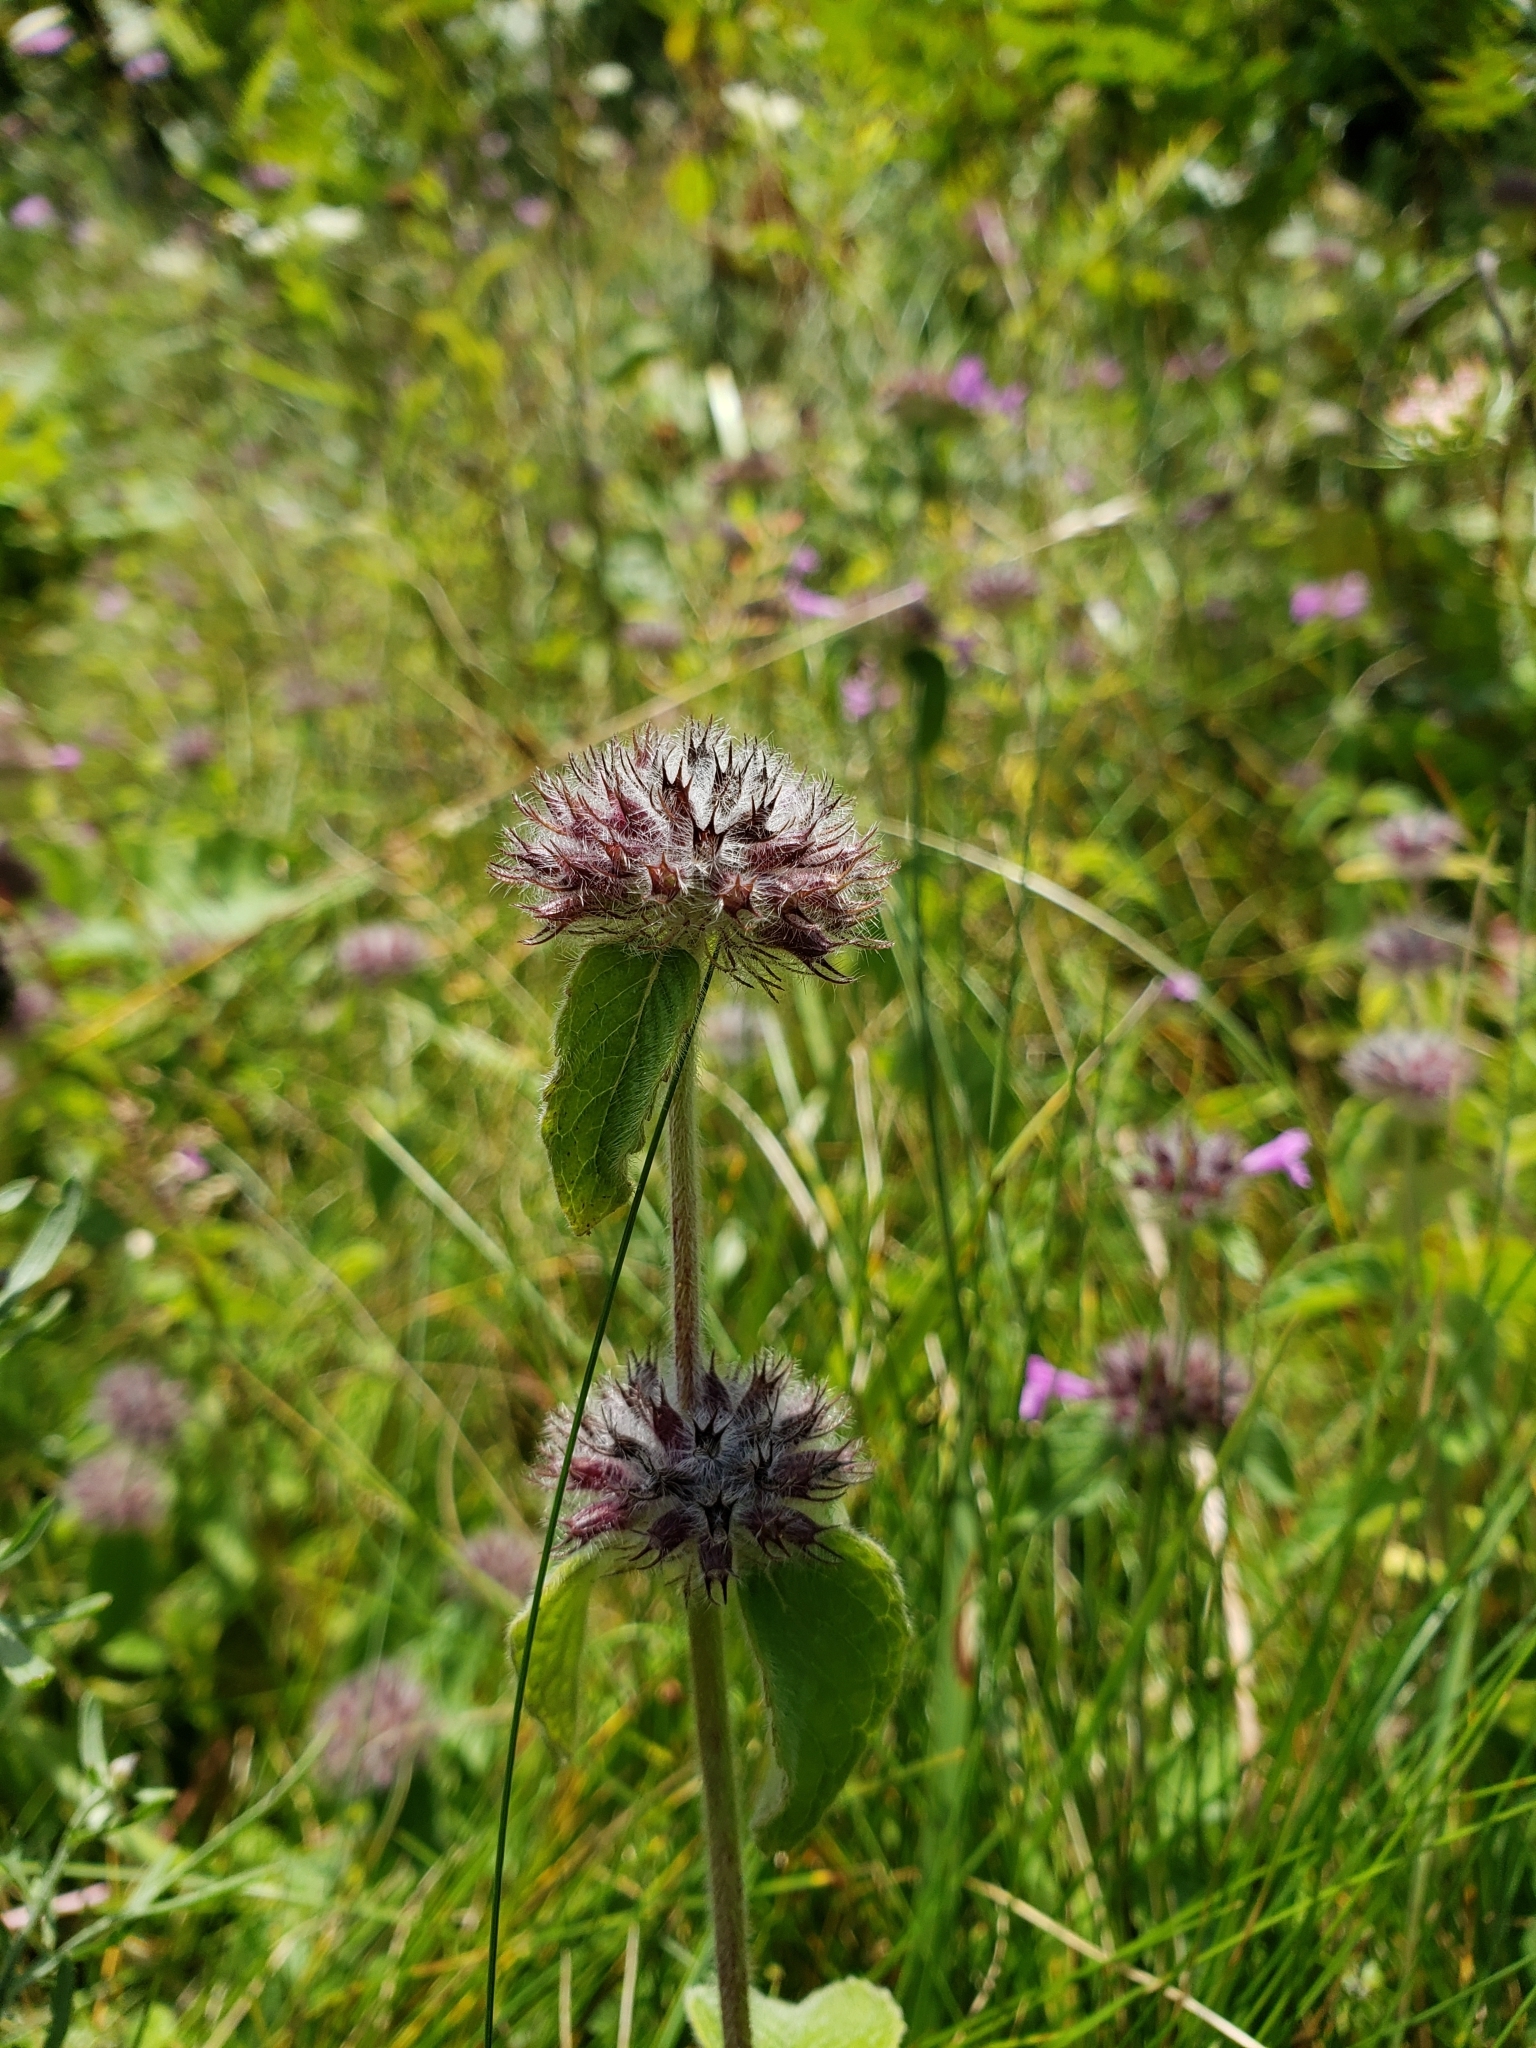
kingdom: Plantae
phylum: Tracheophyta
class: Magnoliopsida
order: Lamiales
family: Lamiaceae
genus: Clinopodium
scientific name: Clinopodium vulgare
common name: Wild basil
